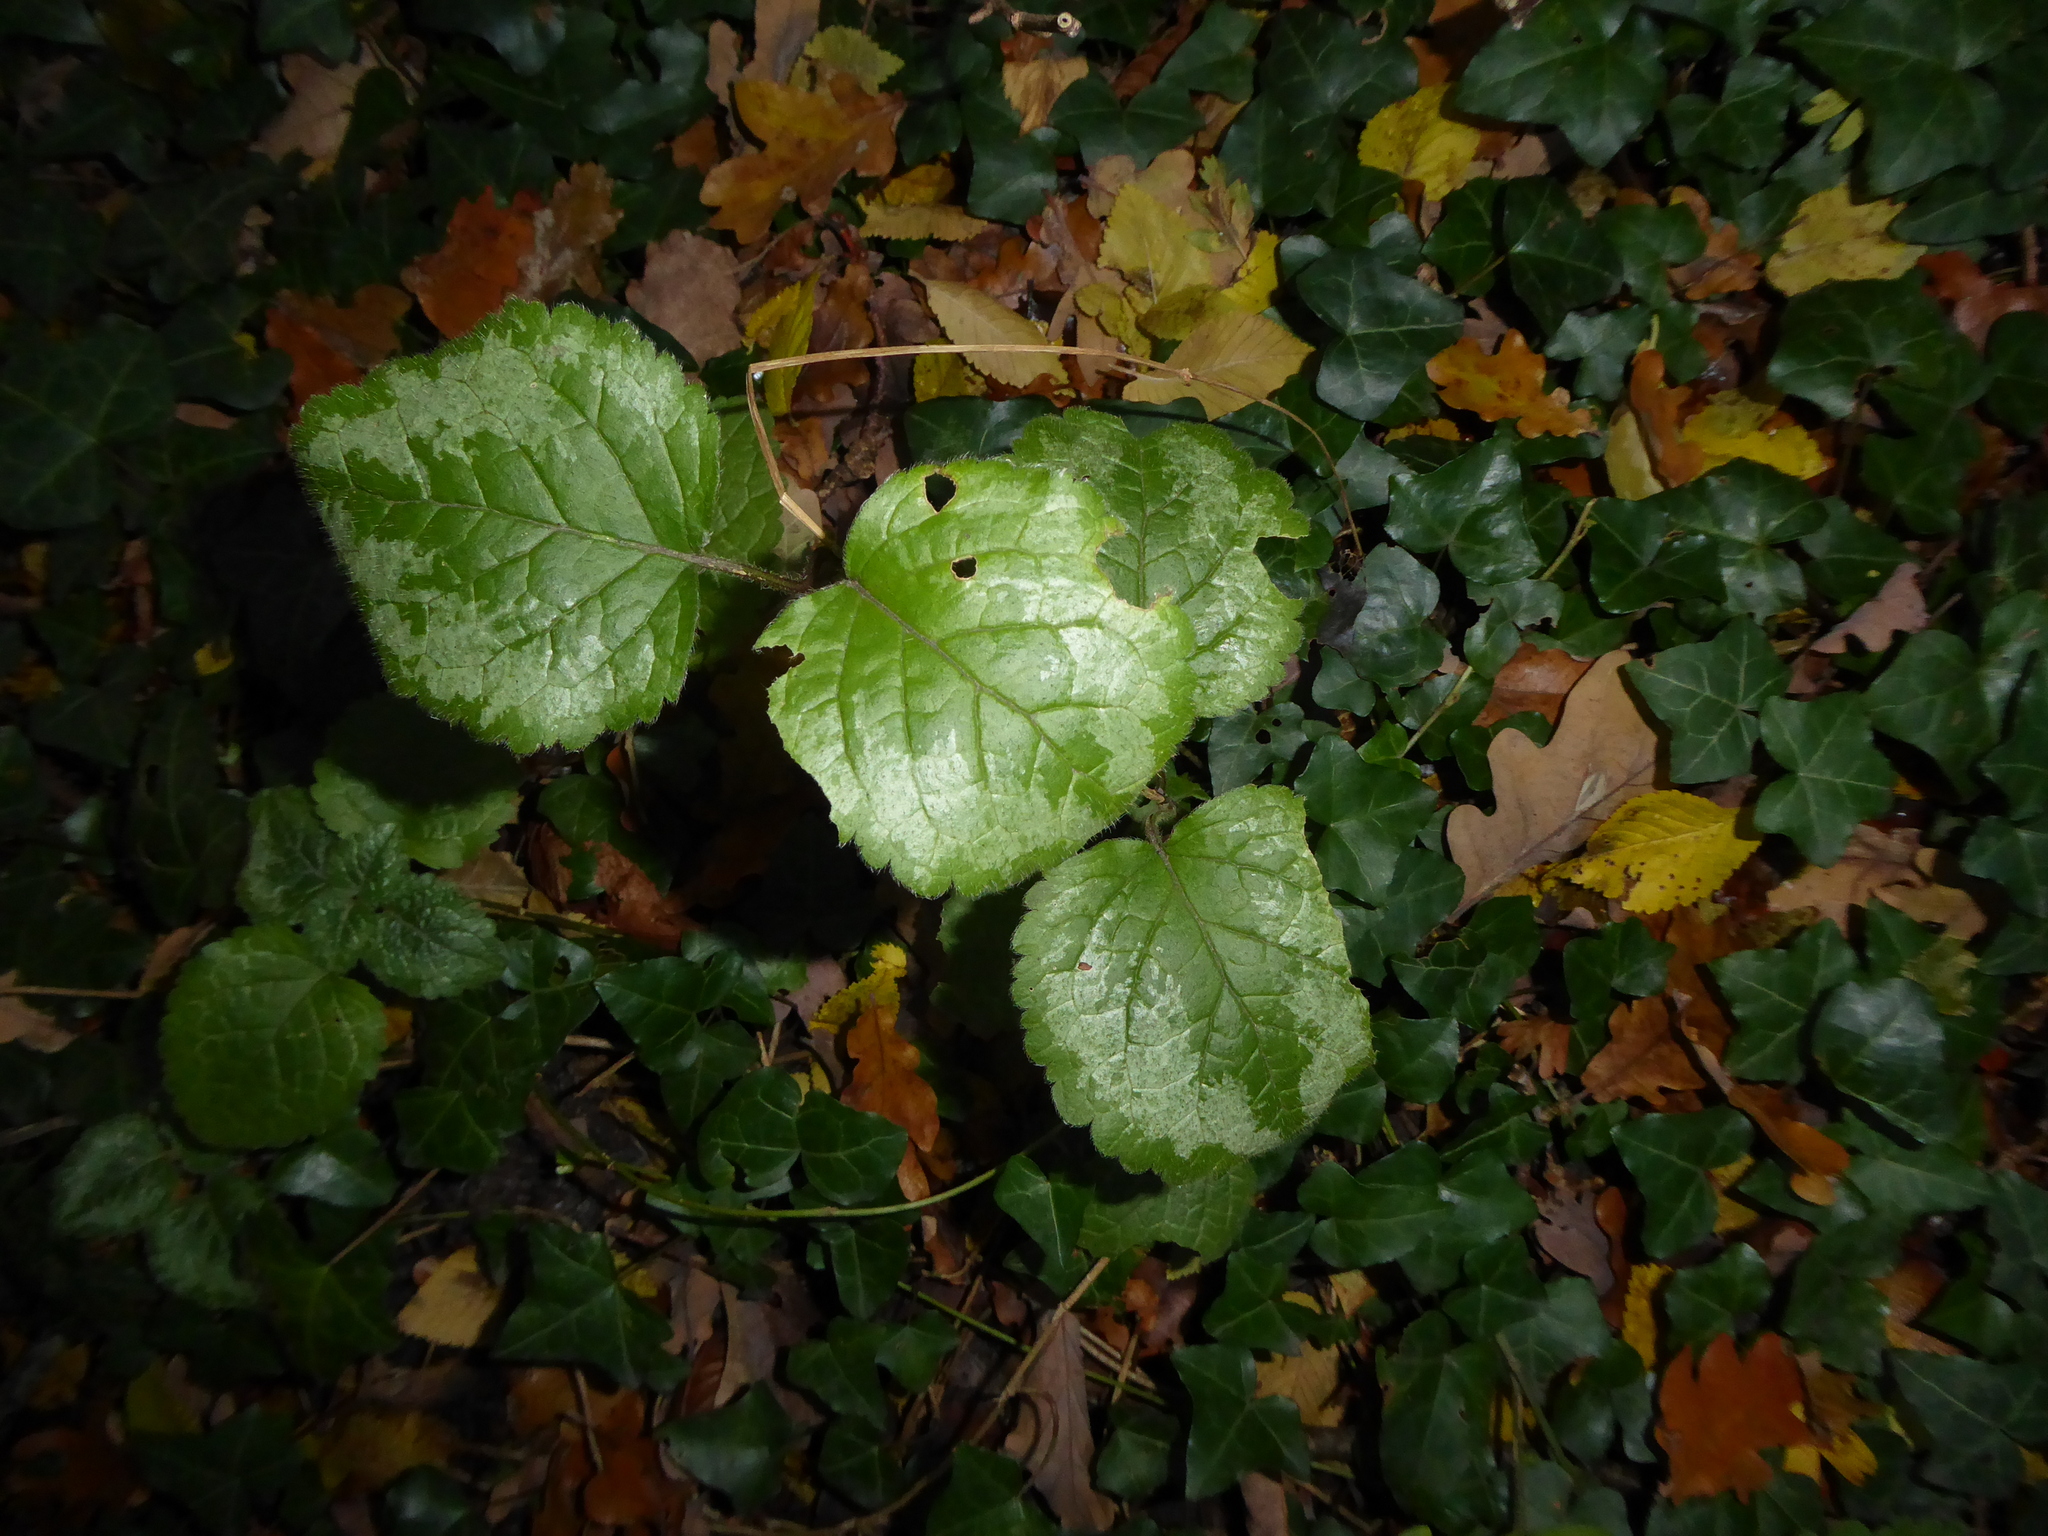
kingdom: Plantae
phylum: Tracheophyta
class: Magnoliopsida
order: Lamiales
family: Lamiaceae
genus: Lamium
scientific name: Lamium galeobdolon
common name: Yellow archangel
